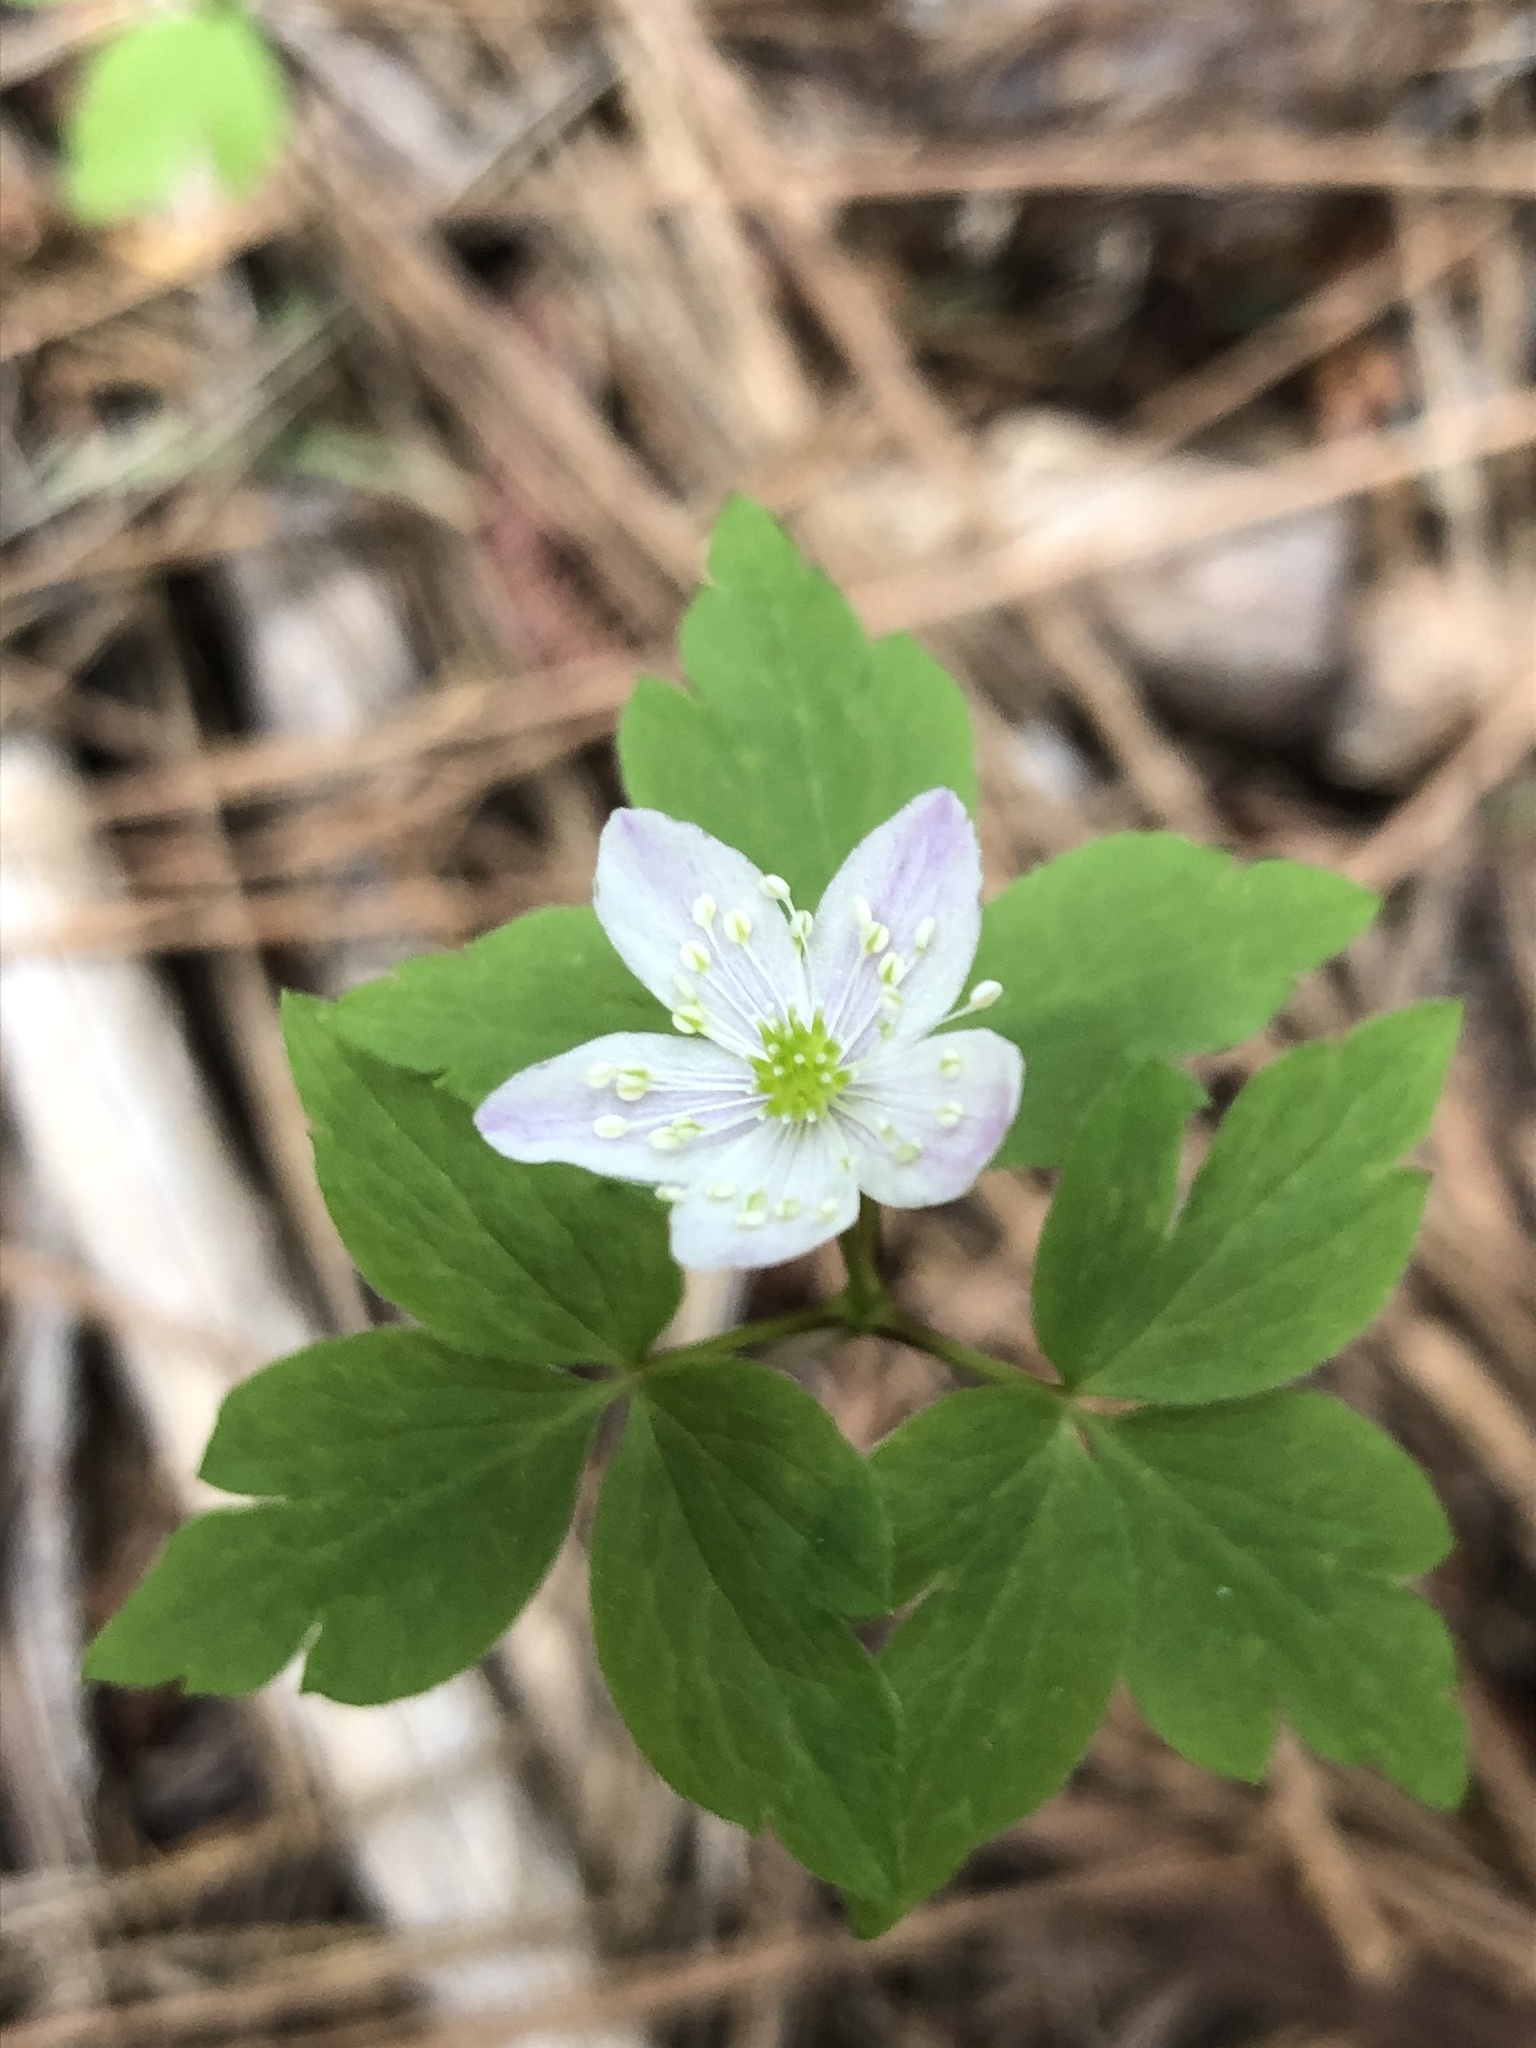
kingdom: Plantae
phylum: Tracheophyta
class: Magnoliopsida
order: Ranunculales
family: Ranunculaceae
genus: Anemone
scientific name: Anemone
